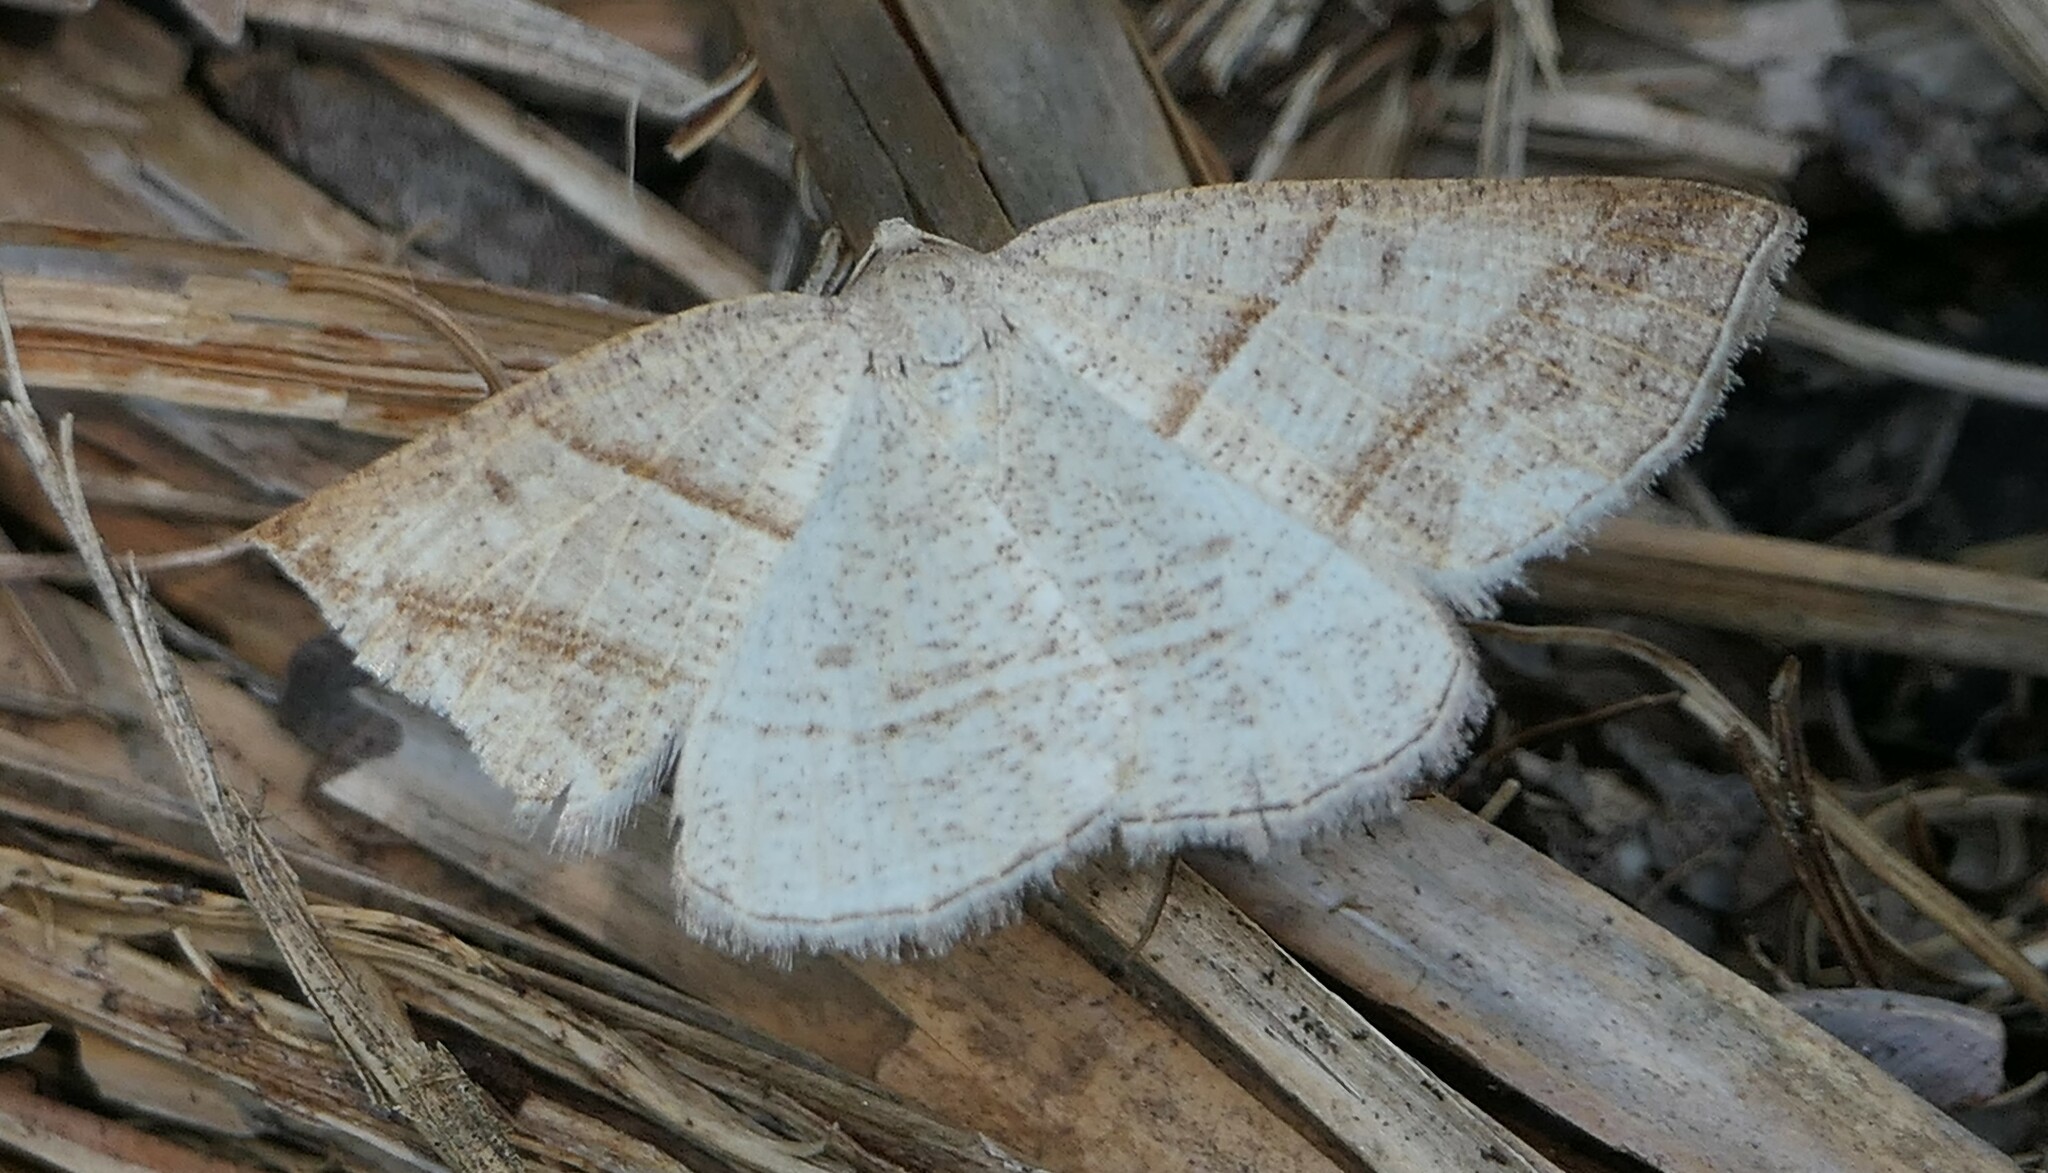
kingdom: Animalia
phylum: Arthropoda
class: Insecta
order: Lepidoptera
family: Pterophoridae
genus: Pterophorus
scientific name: Pterophorus Petrophora subaequaria
